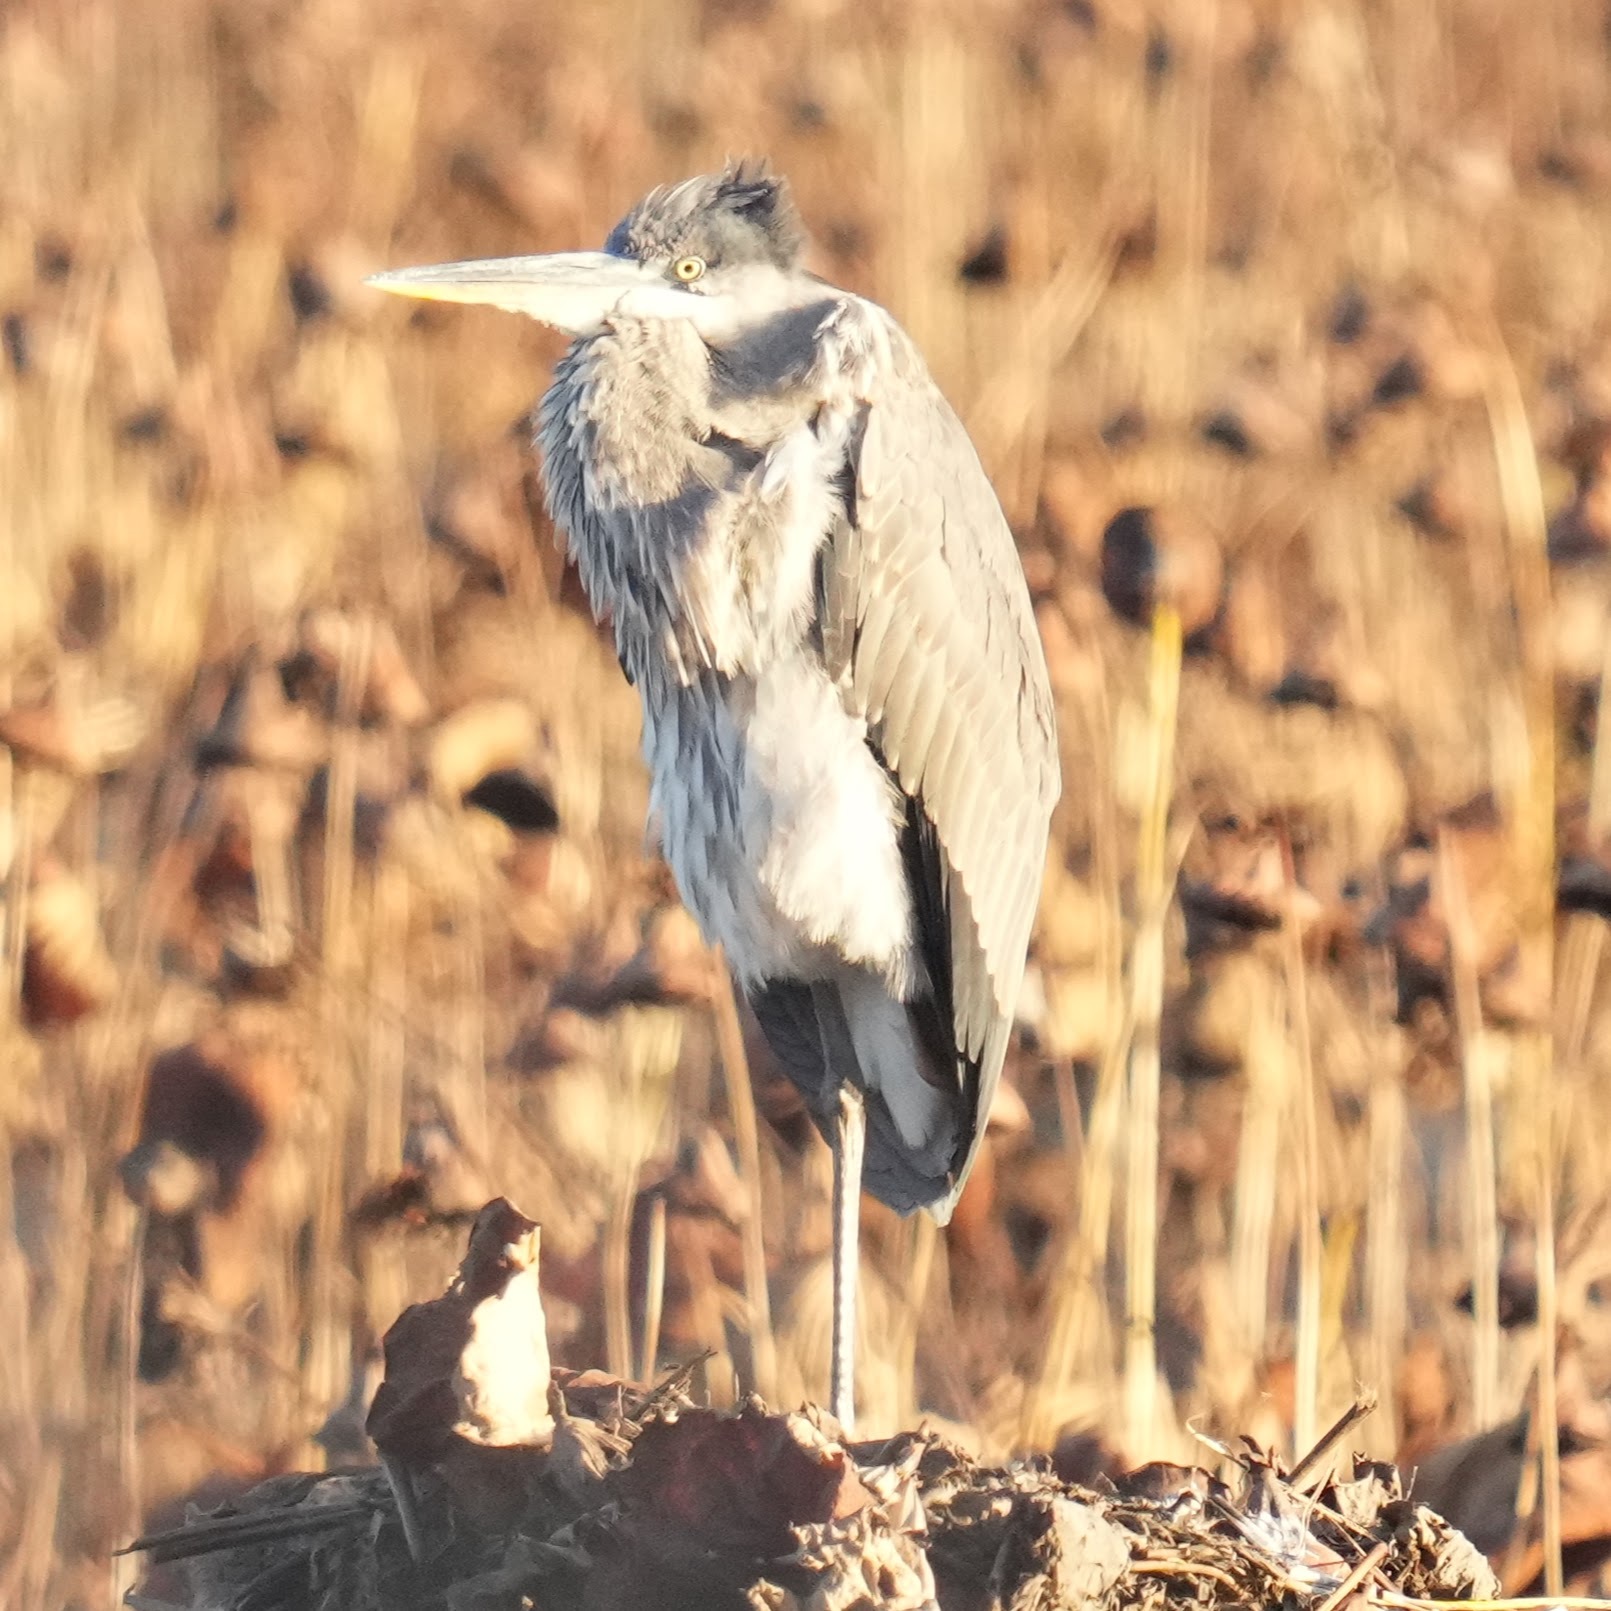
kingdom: Animalia
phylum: Chordata
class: Aves
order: Pelecaniformes
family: Ardeidae
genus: Ardea
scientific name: Ardea herodias
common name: Great blue heron
